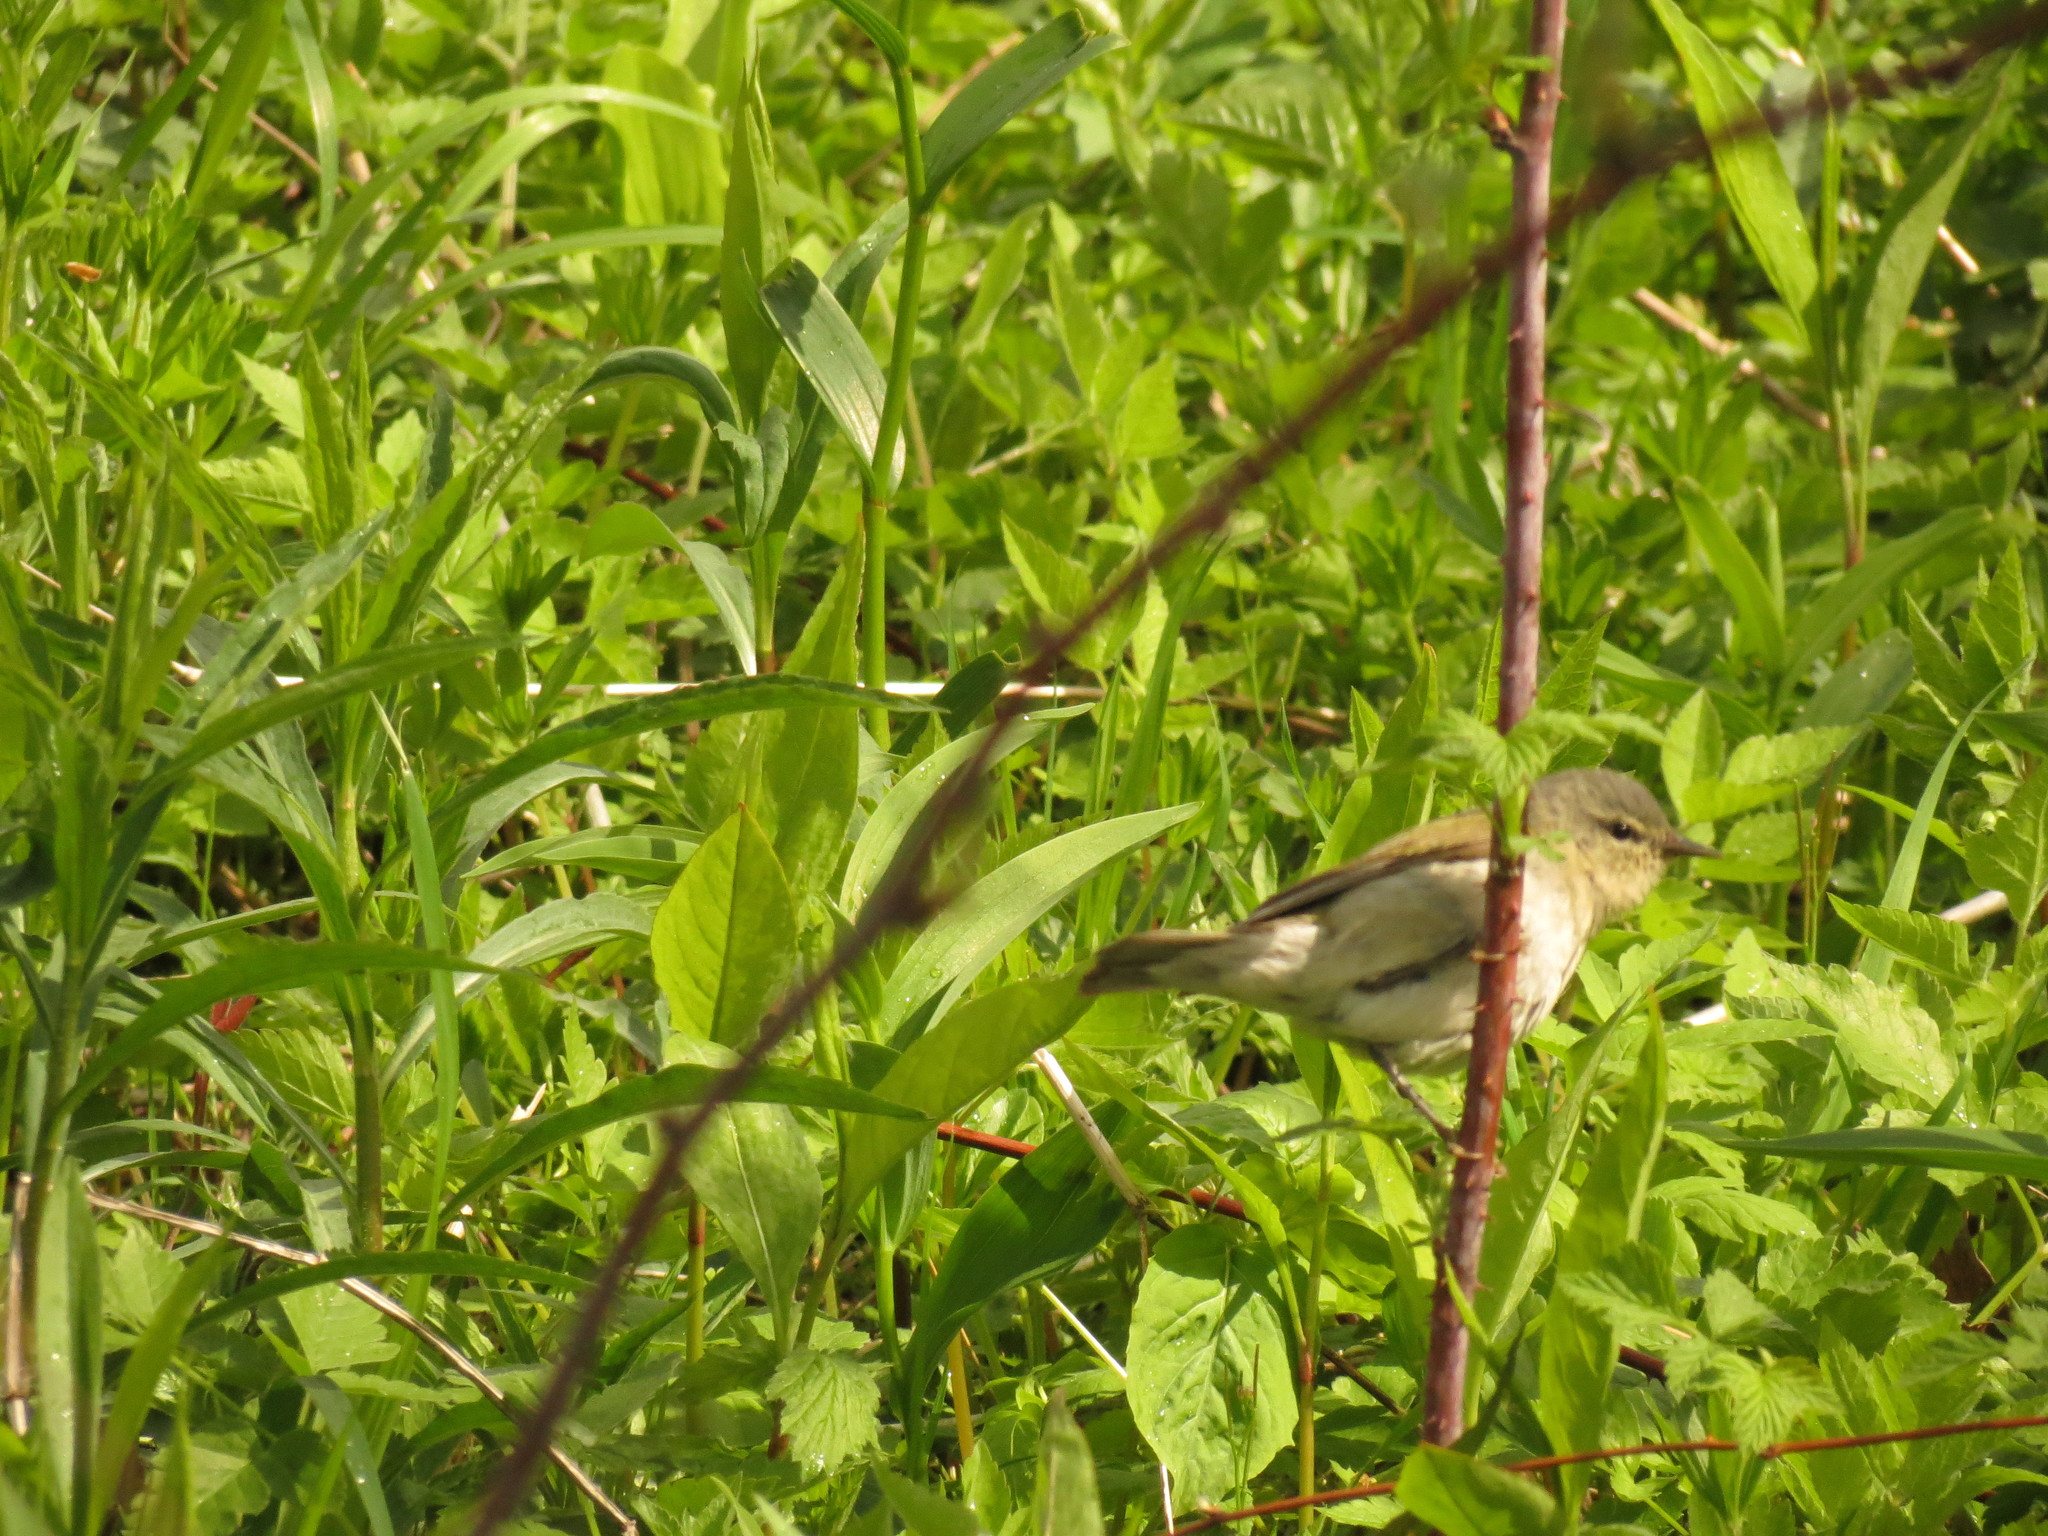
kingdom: Animalia
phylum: Chordata
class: Aves
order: Passeriformes
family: Parulidae
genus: Leiothlypis
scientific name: Leiothlypis peregrina
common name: Tennessee warbler
